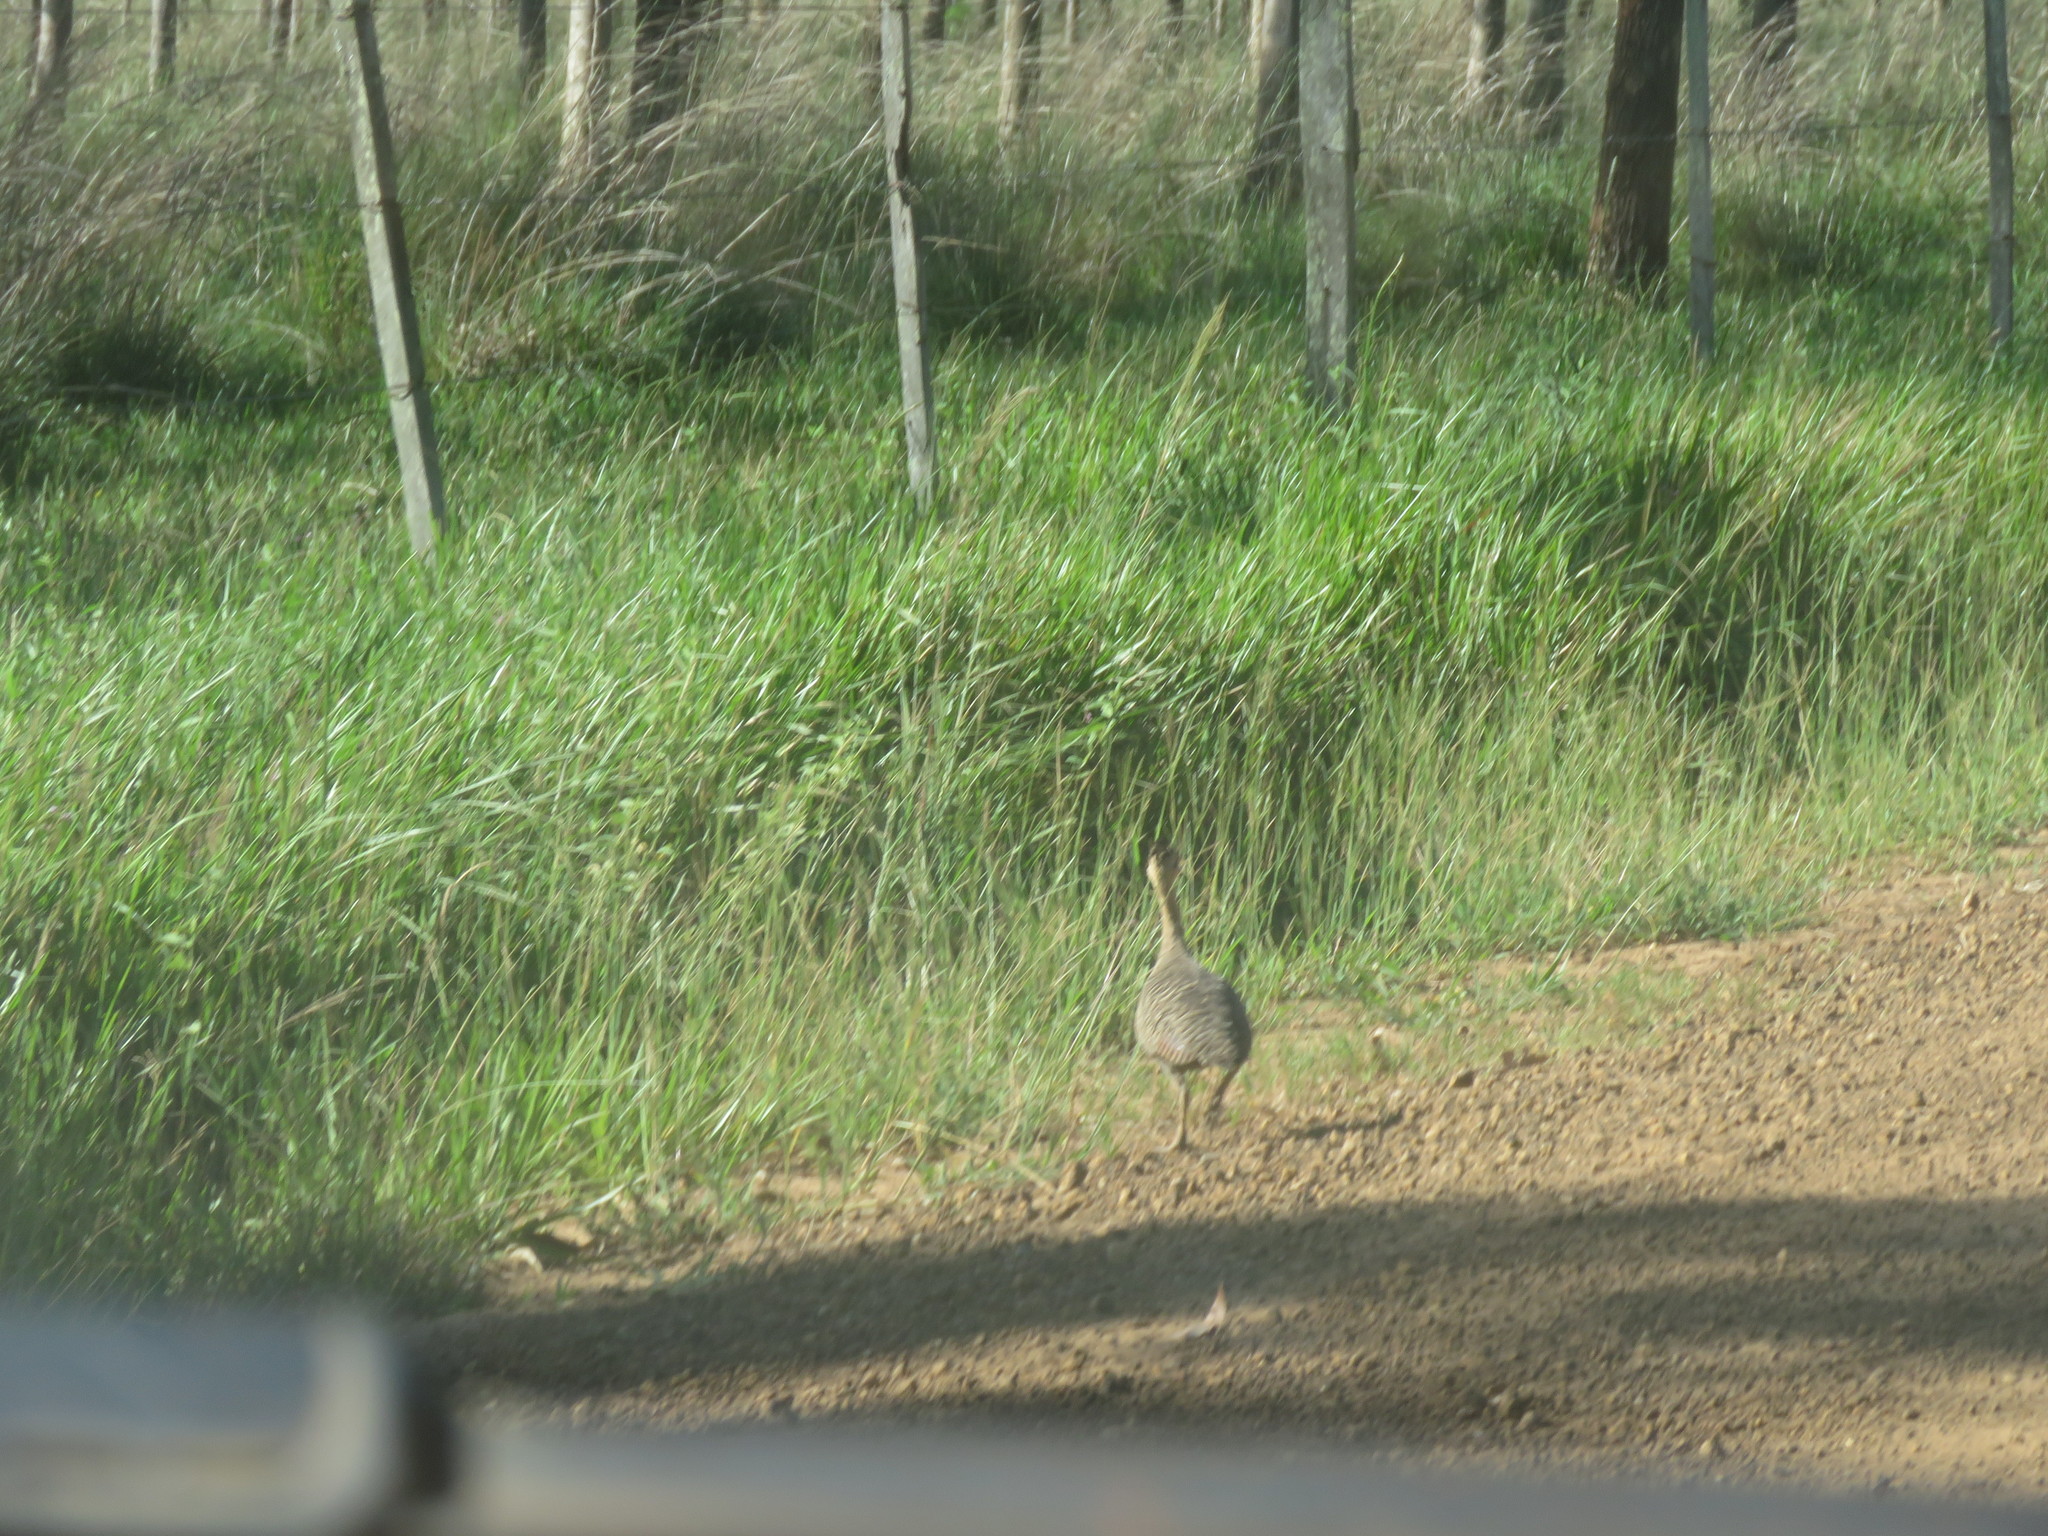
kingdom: Animalia
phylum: Chordata
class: Aves
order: Tinamiformes
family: Tinamidae
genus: Rhynchotus
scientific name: Rhynchotus rufescens
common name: Red-winged tinamou
